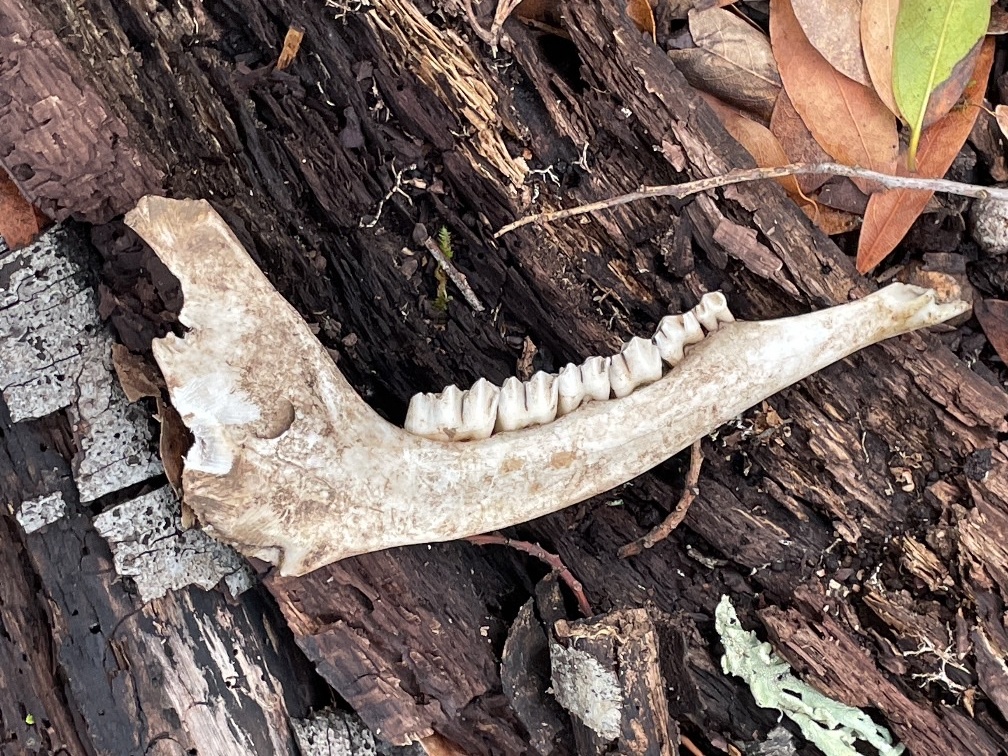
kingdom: Animalia
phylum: Chordata
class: Mammalia
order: Artiodactyla
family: Cervidae
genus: Odocoileus
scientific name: Odocoileus hemionus
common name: Mule deer
